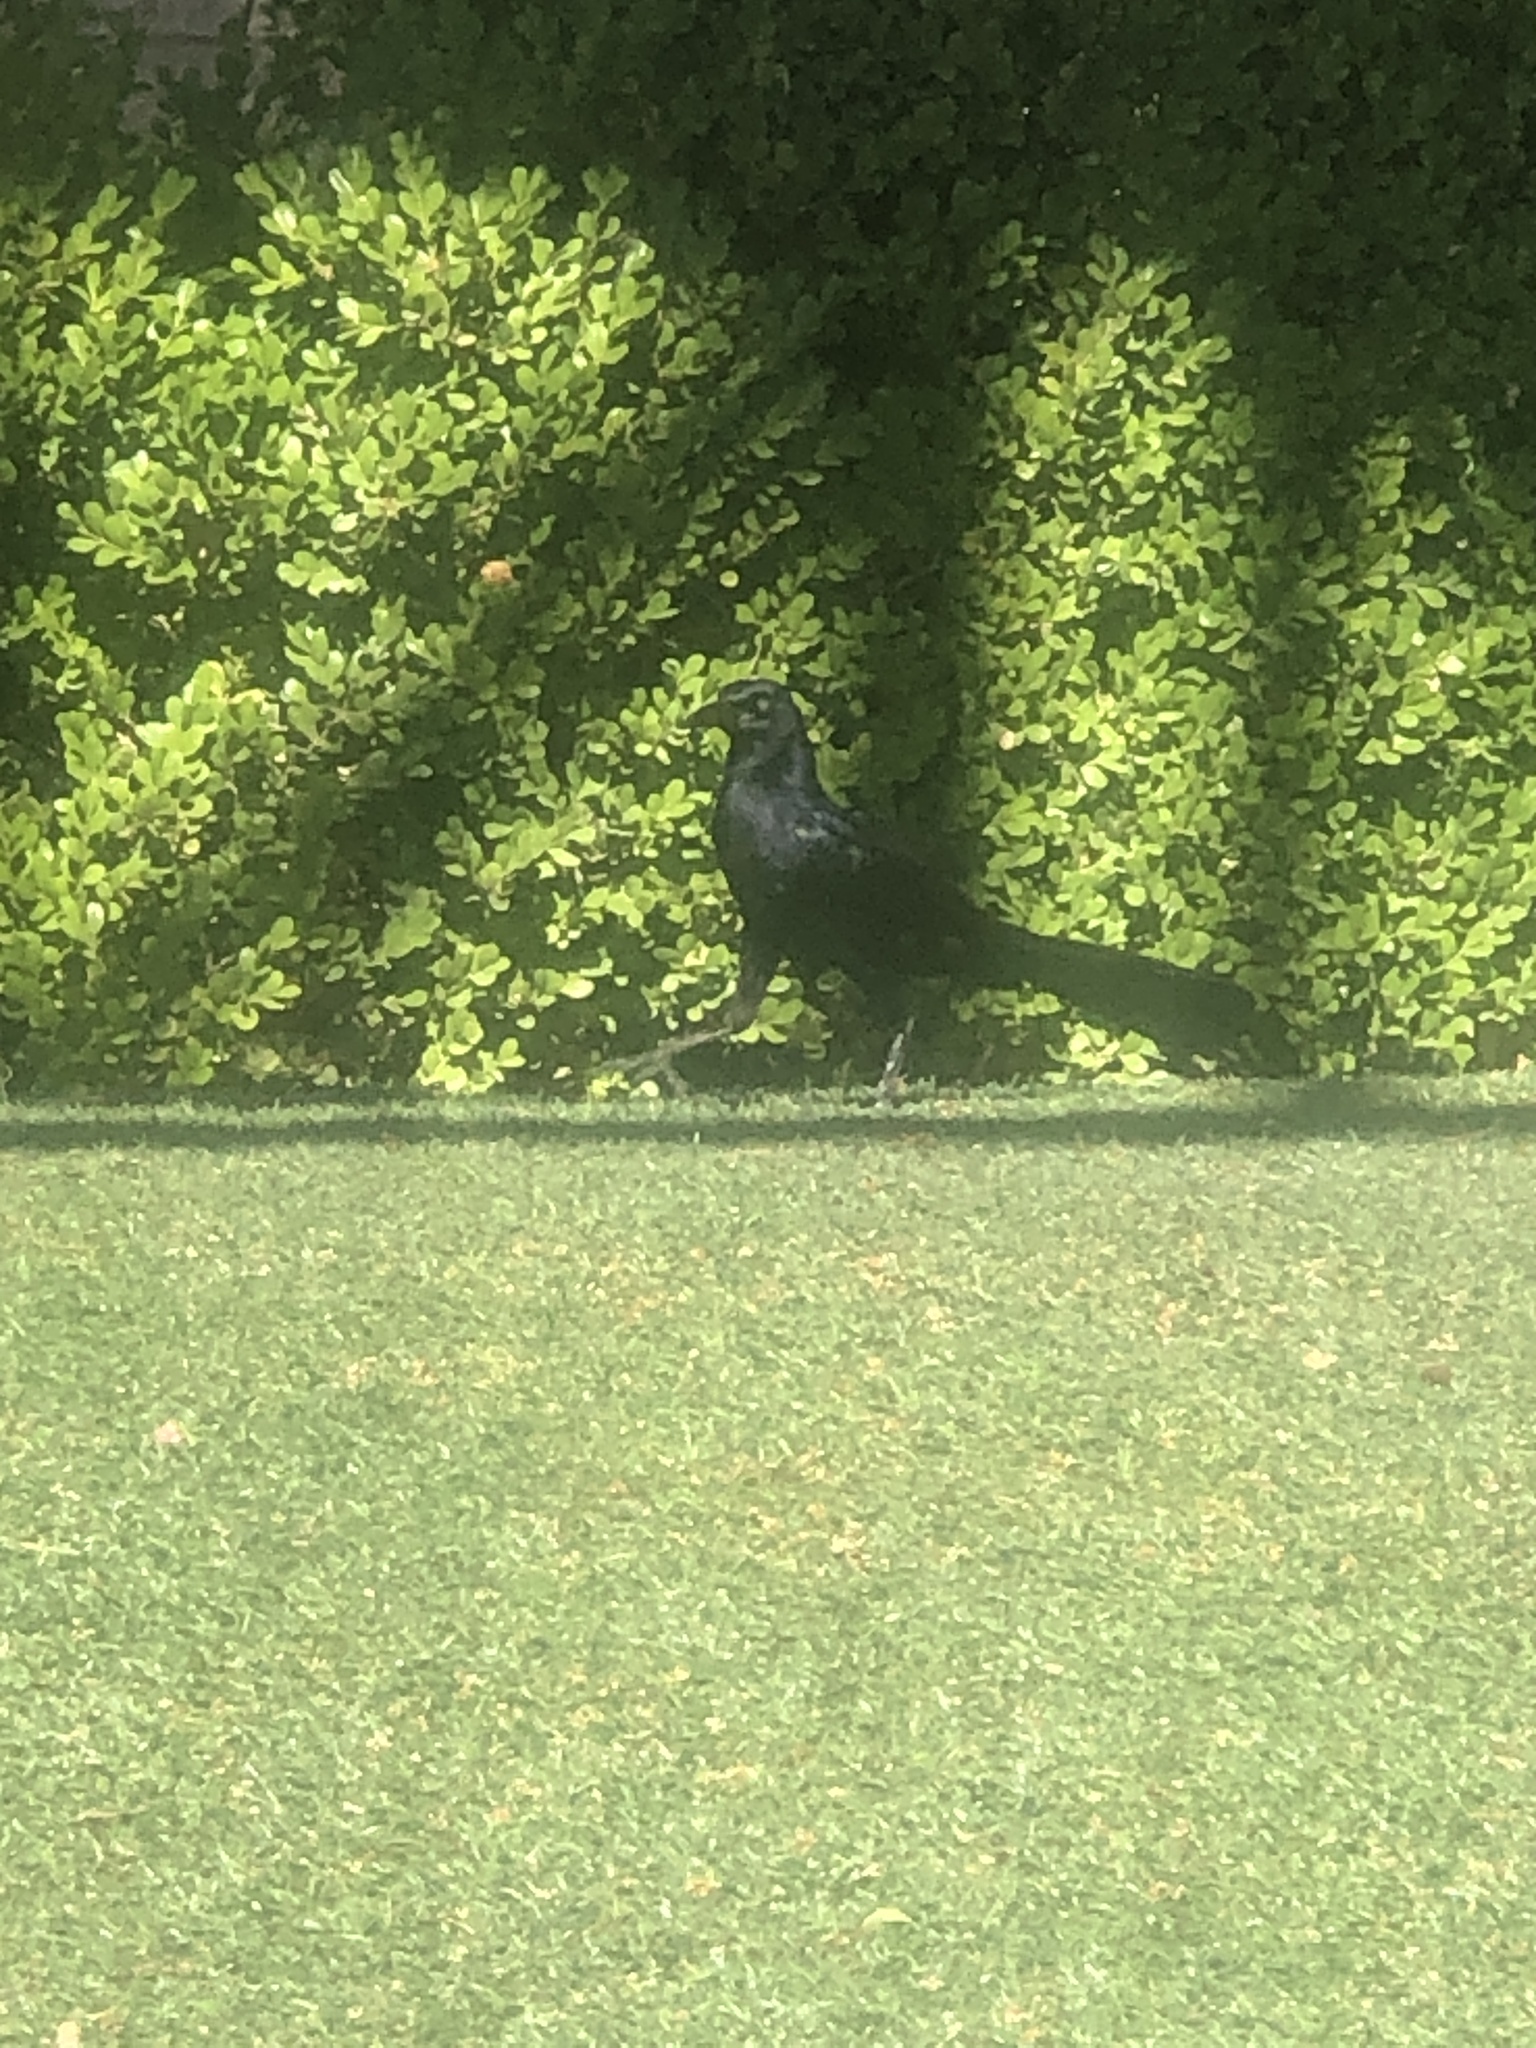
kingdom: Animalia
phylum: Chordata
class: Aves
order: Passeriformes
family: Icteridae
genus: Quiscalus
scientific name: Quiscalus mexicanus
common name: Great-tailed grackle
